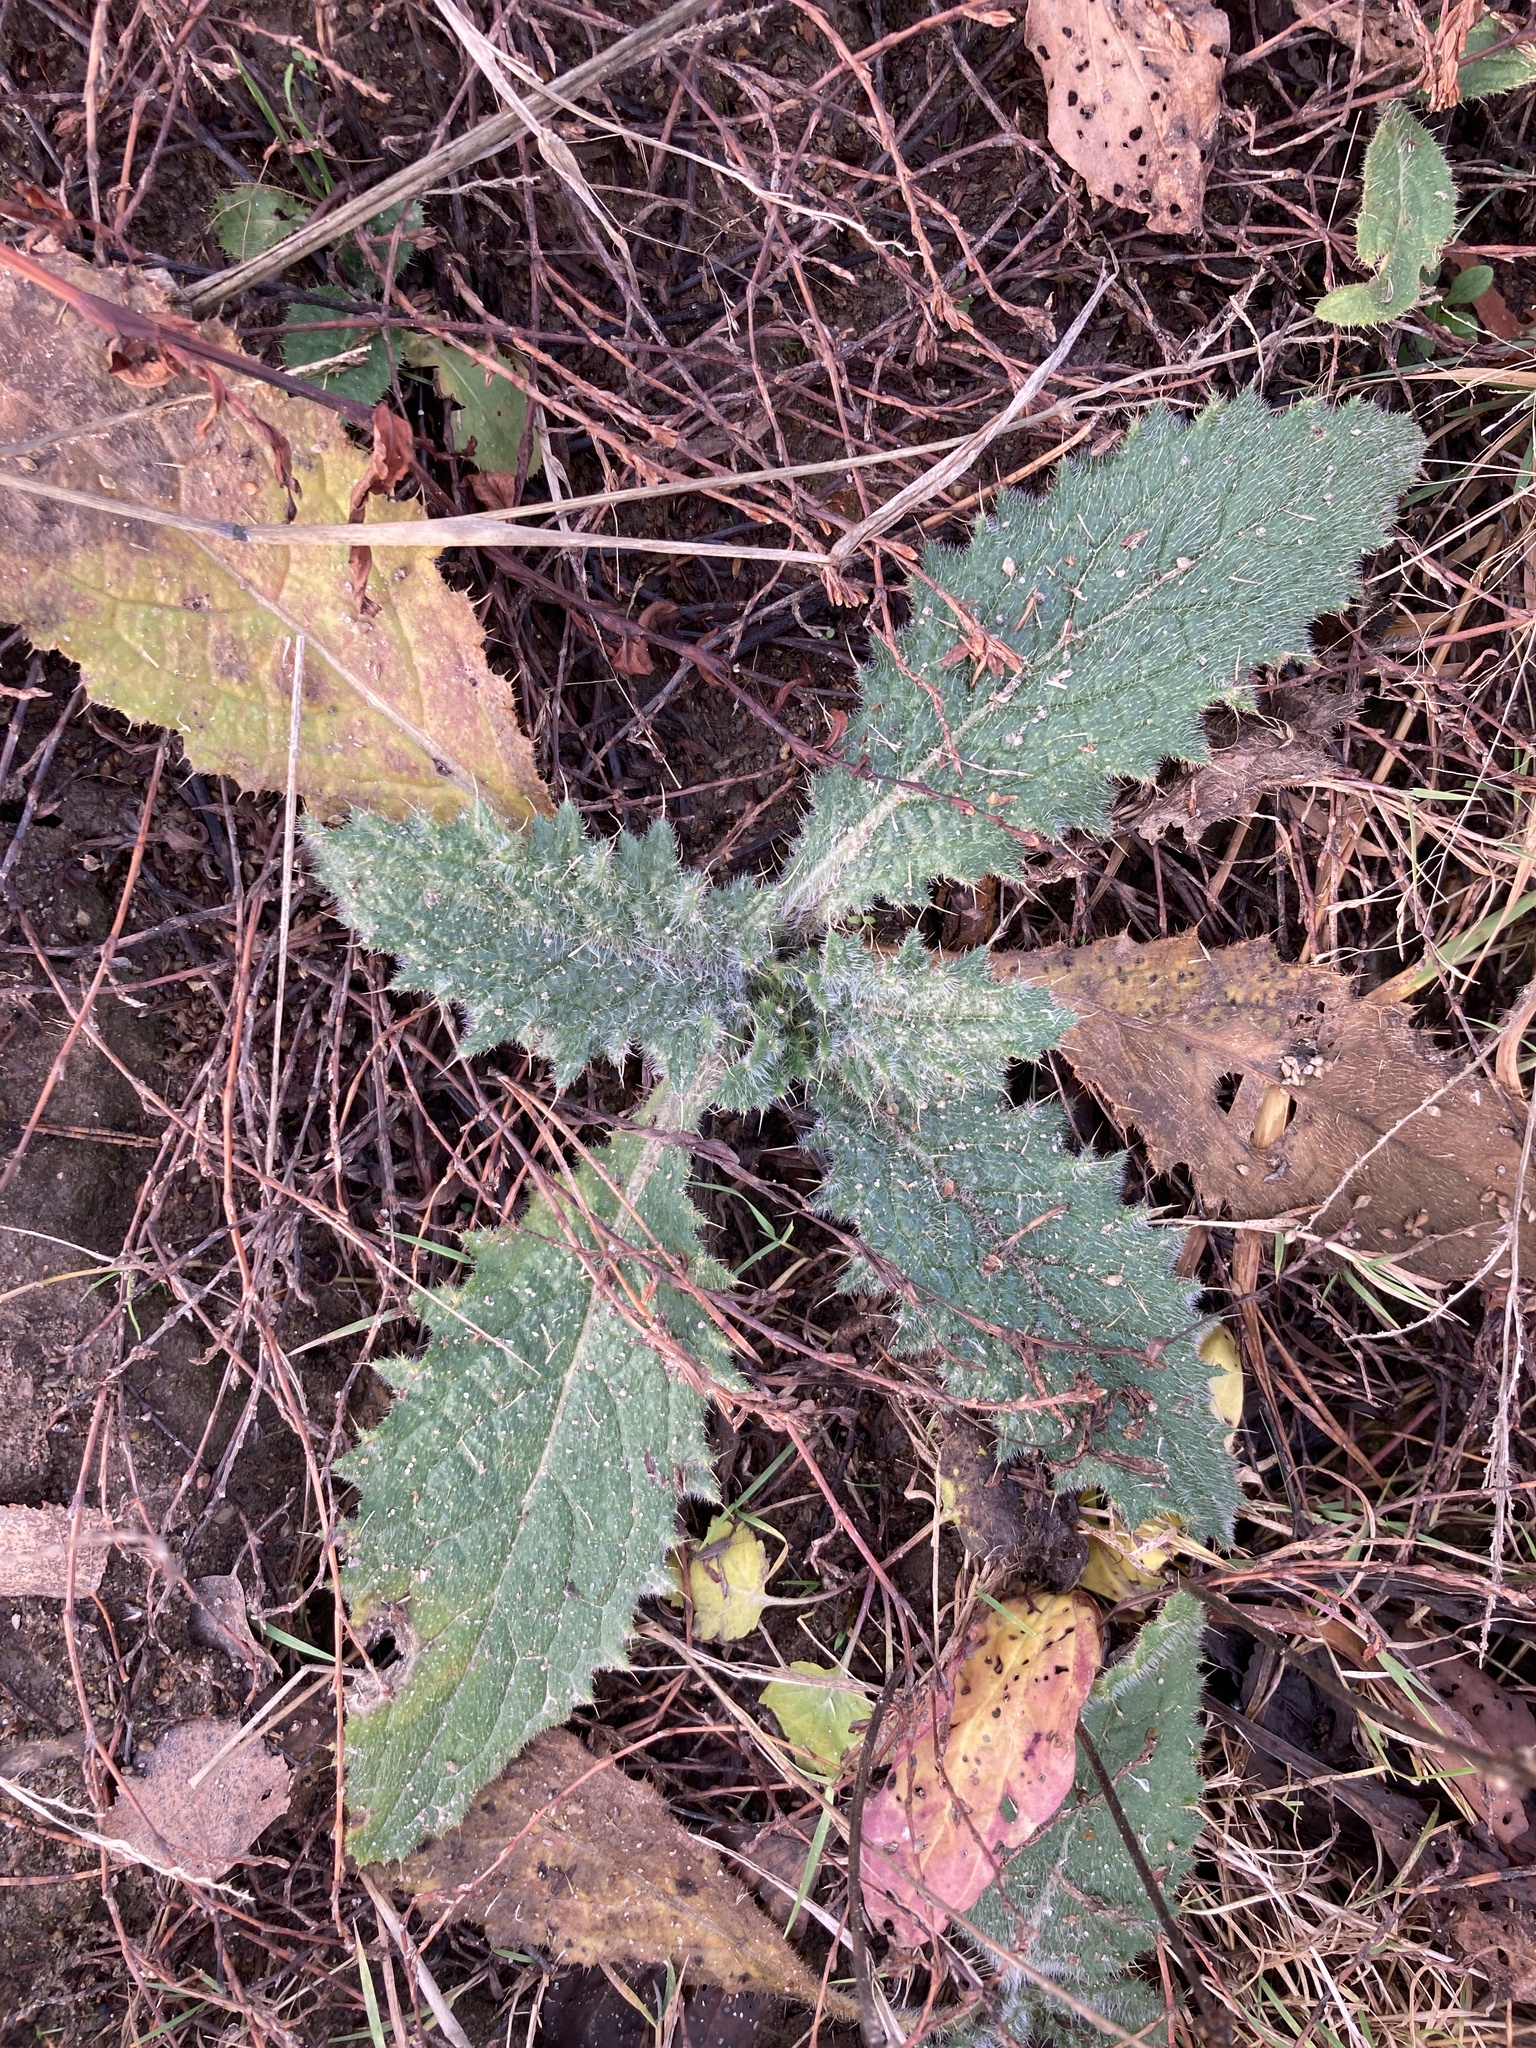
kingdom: Plantae
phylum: Tracheophyta
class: Magnoliopsida
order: Asterales
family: Asteraceae
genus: Cirsium
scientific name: Cirsium vulgare
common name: Bull thistle
